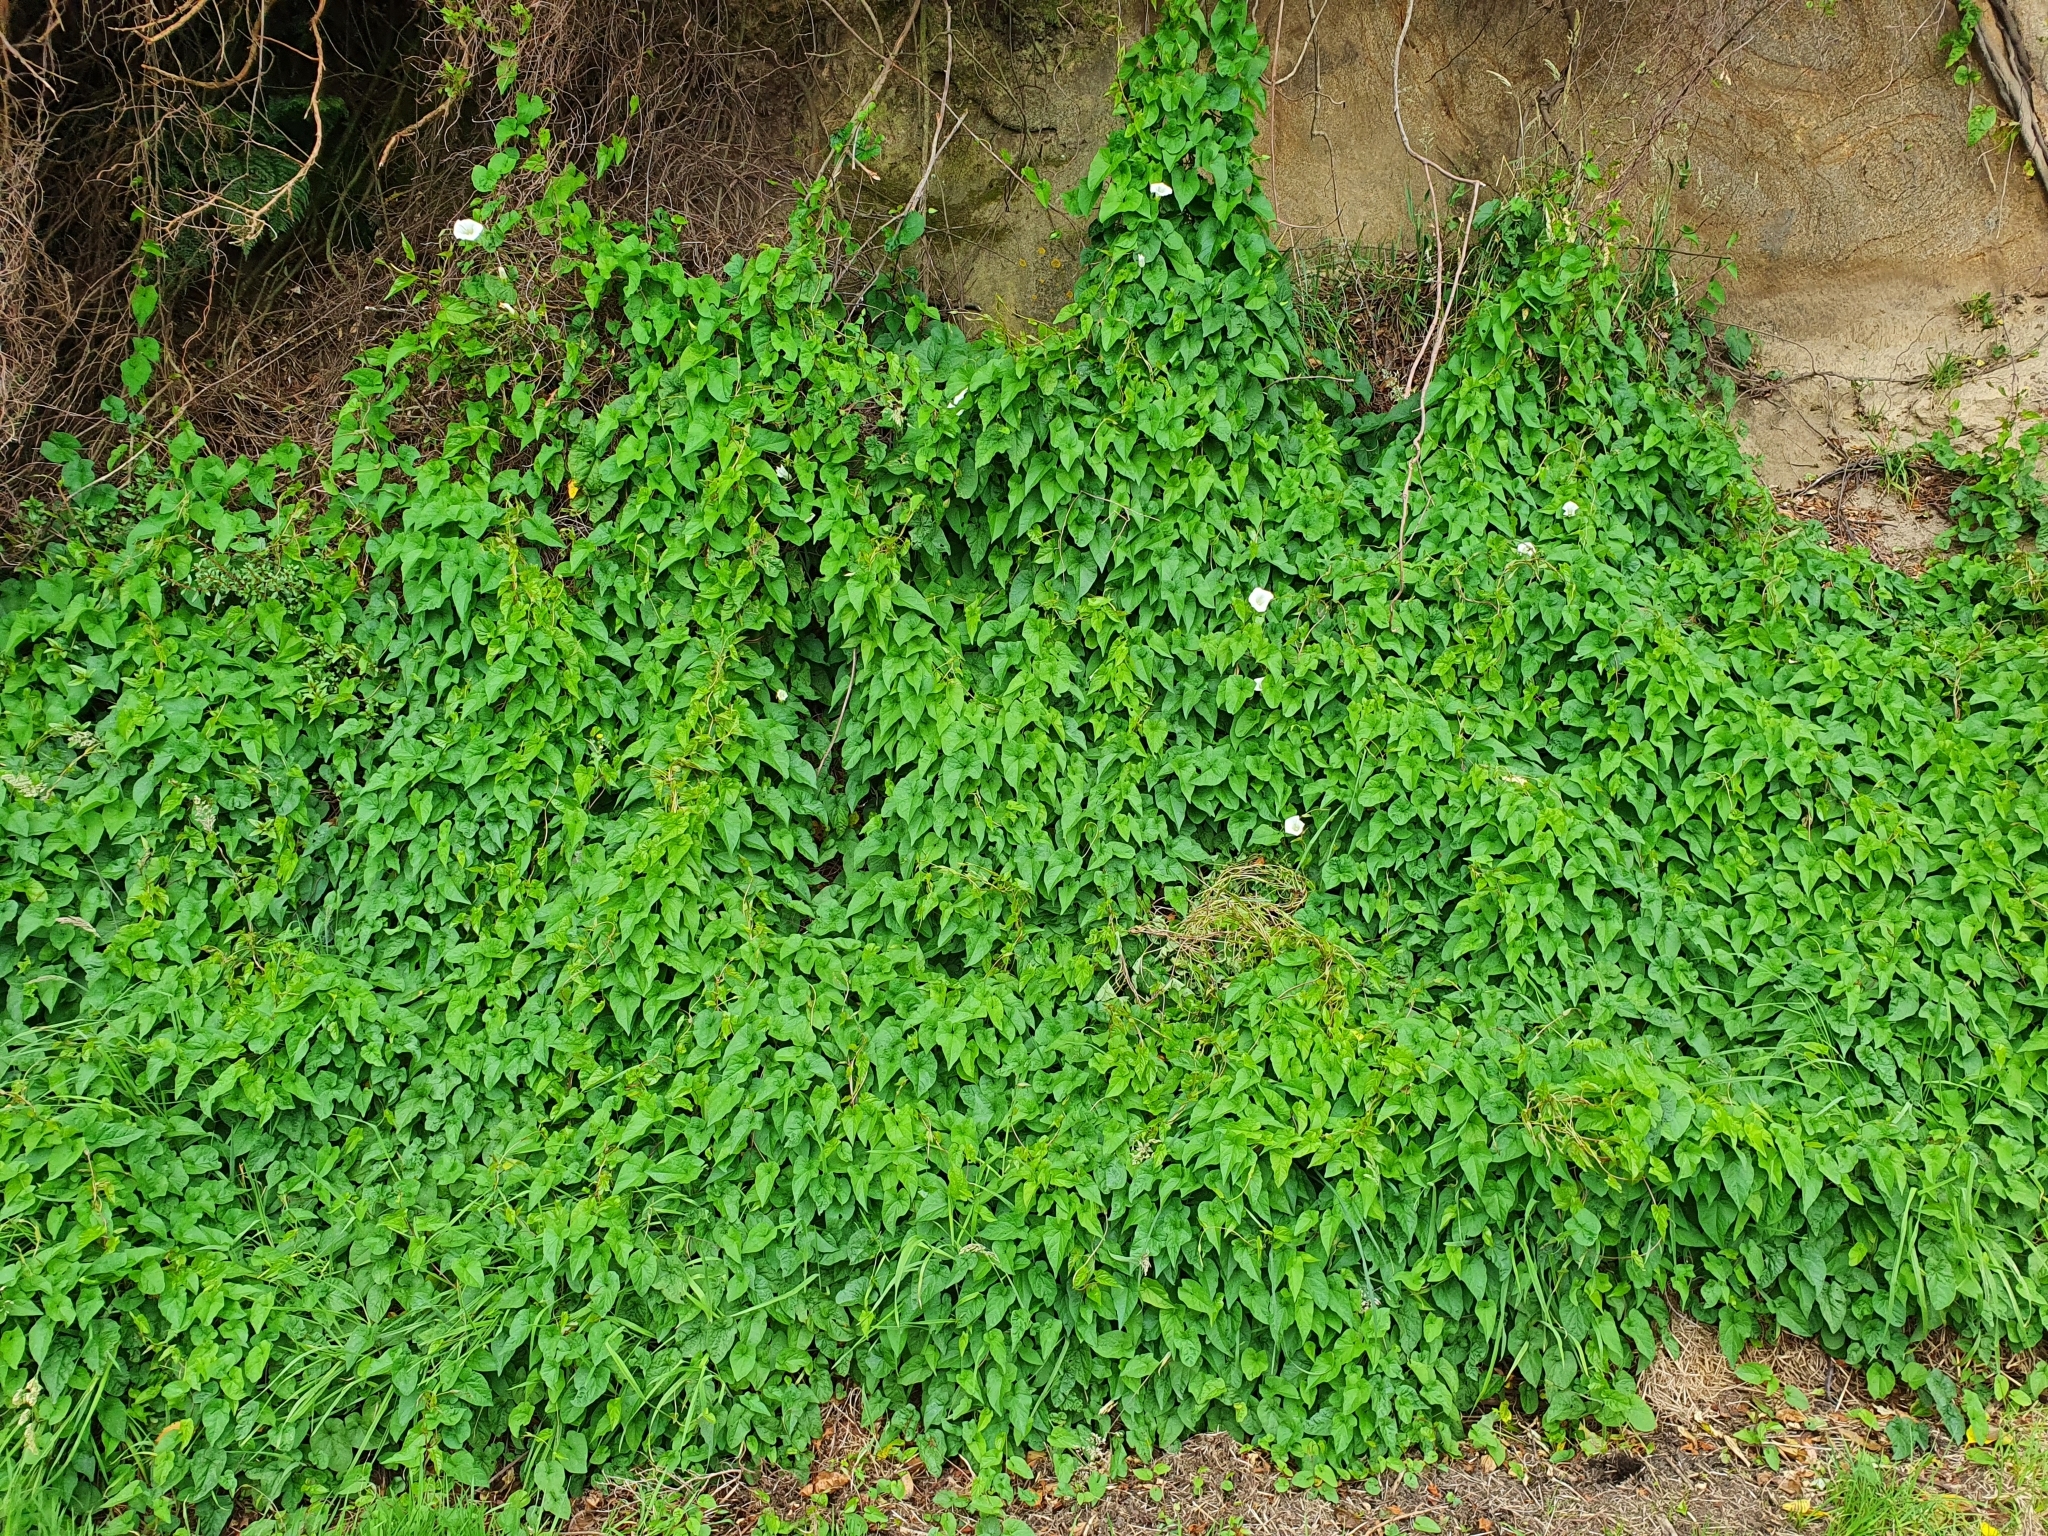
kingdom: Plantae
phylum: Tracheophyta
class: Magnoliopsida
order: Solanales
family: Convolvulaceae
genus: Calystegia
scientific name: Calystegia silvatica
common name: Large bindweed
